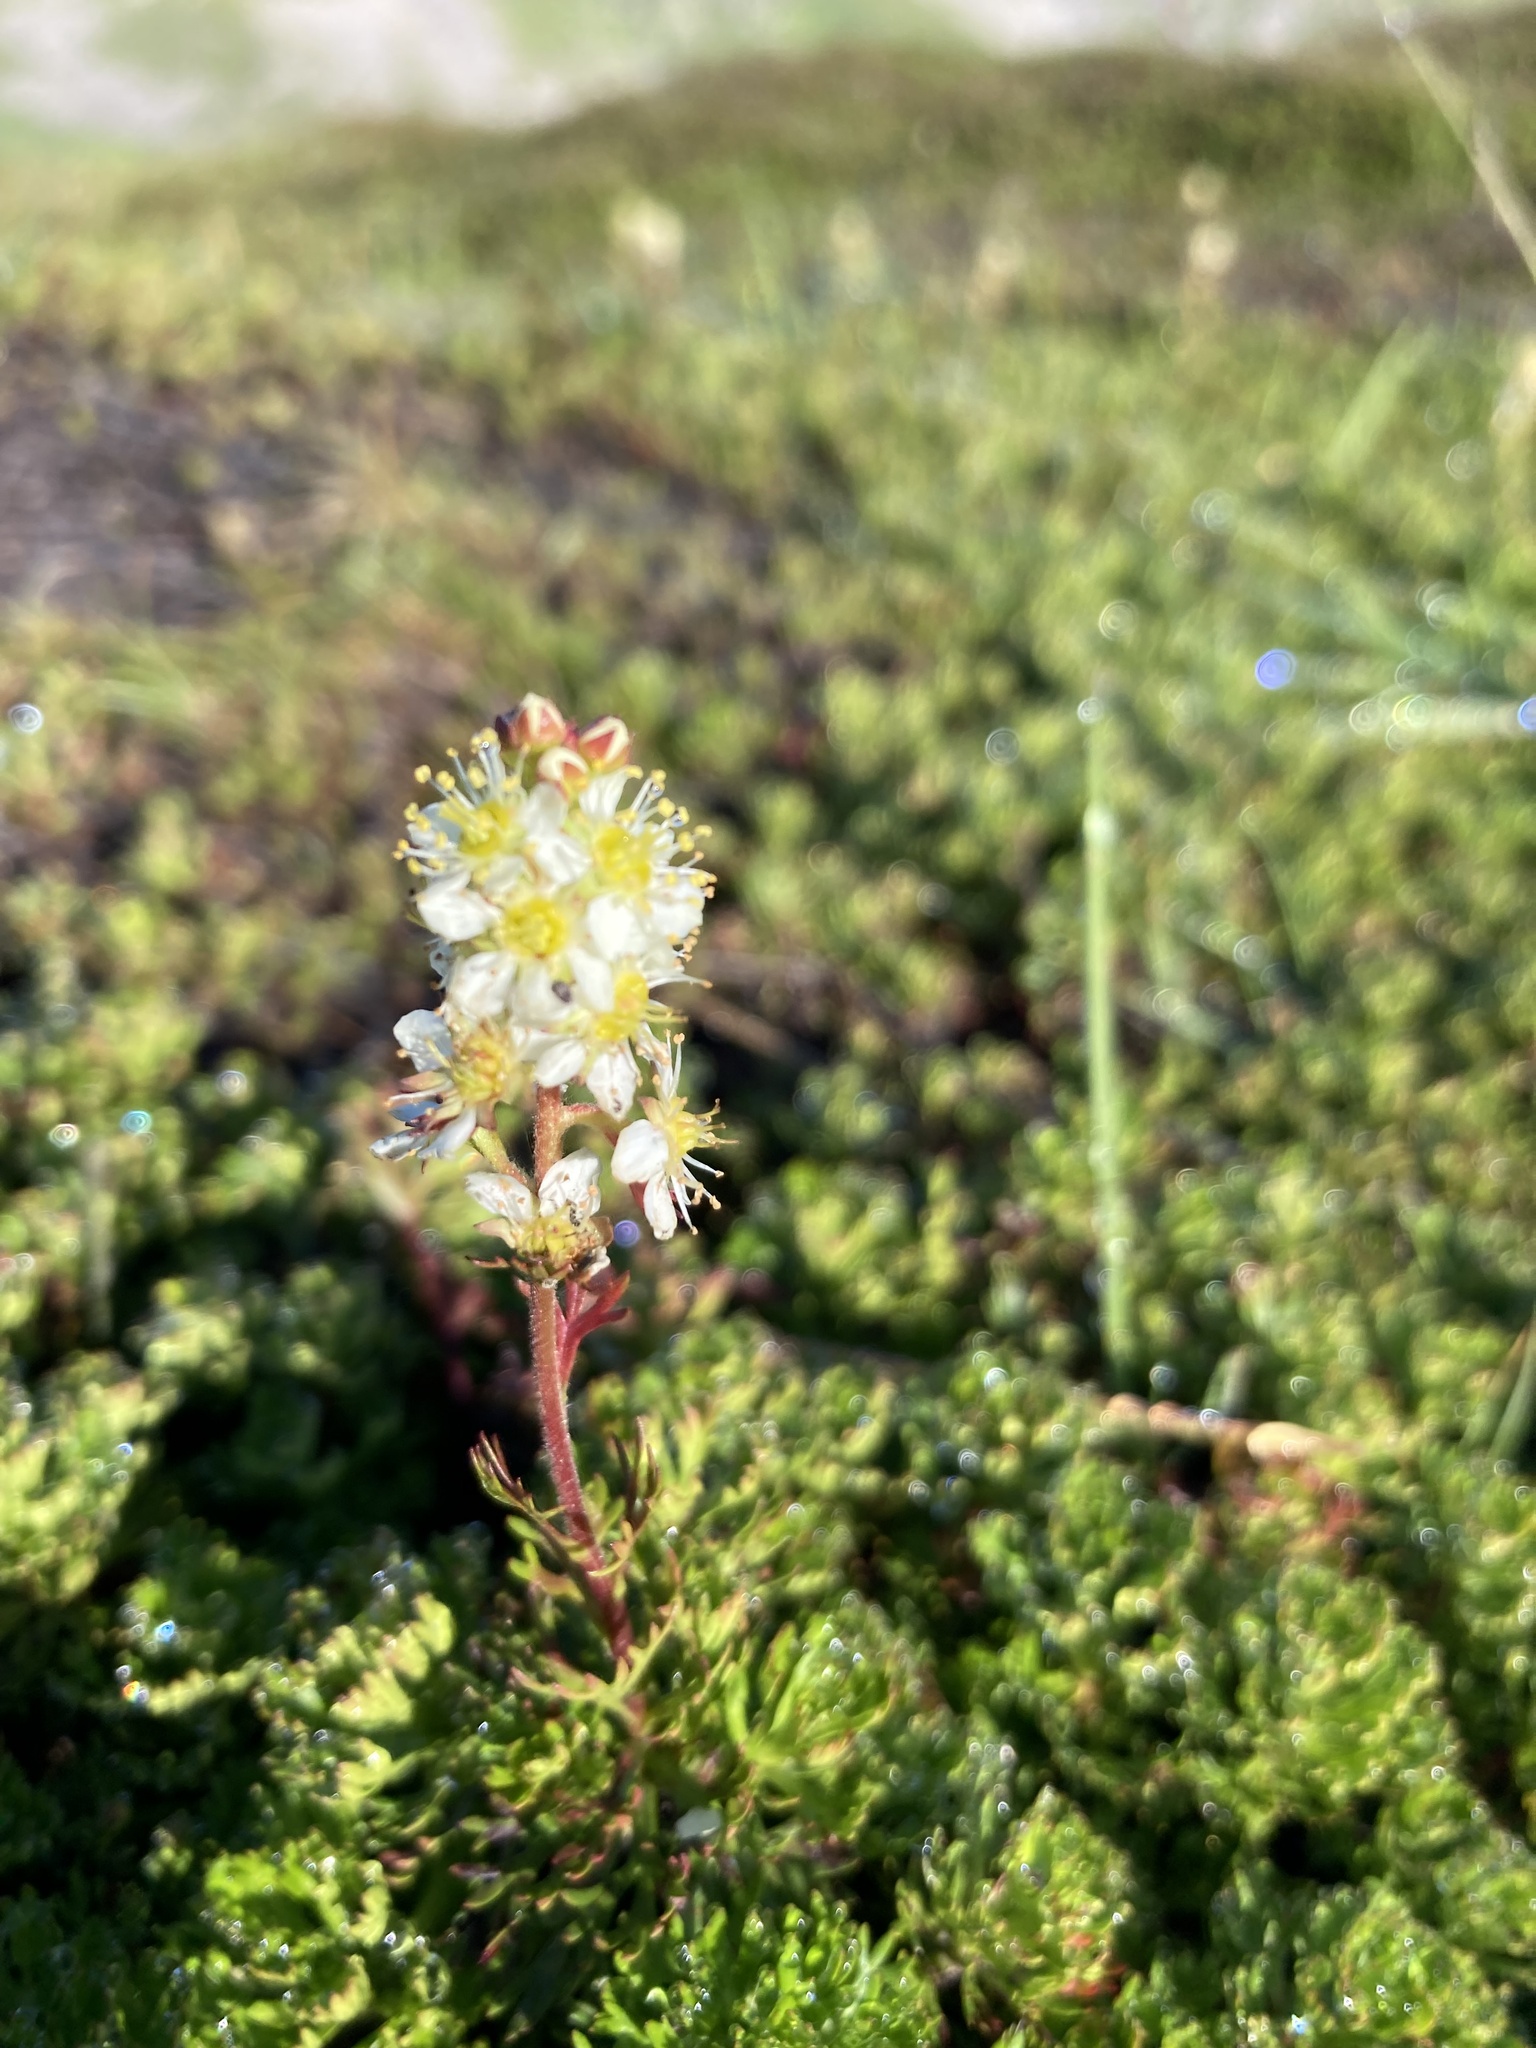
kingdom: Plantae
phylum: Tracheophyta
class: Magnoliopsida
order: Rosales
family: Rosaceae
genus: Luetkea
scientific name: Luetkea pectinata
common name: Partridgefoot
